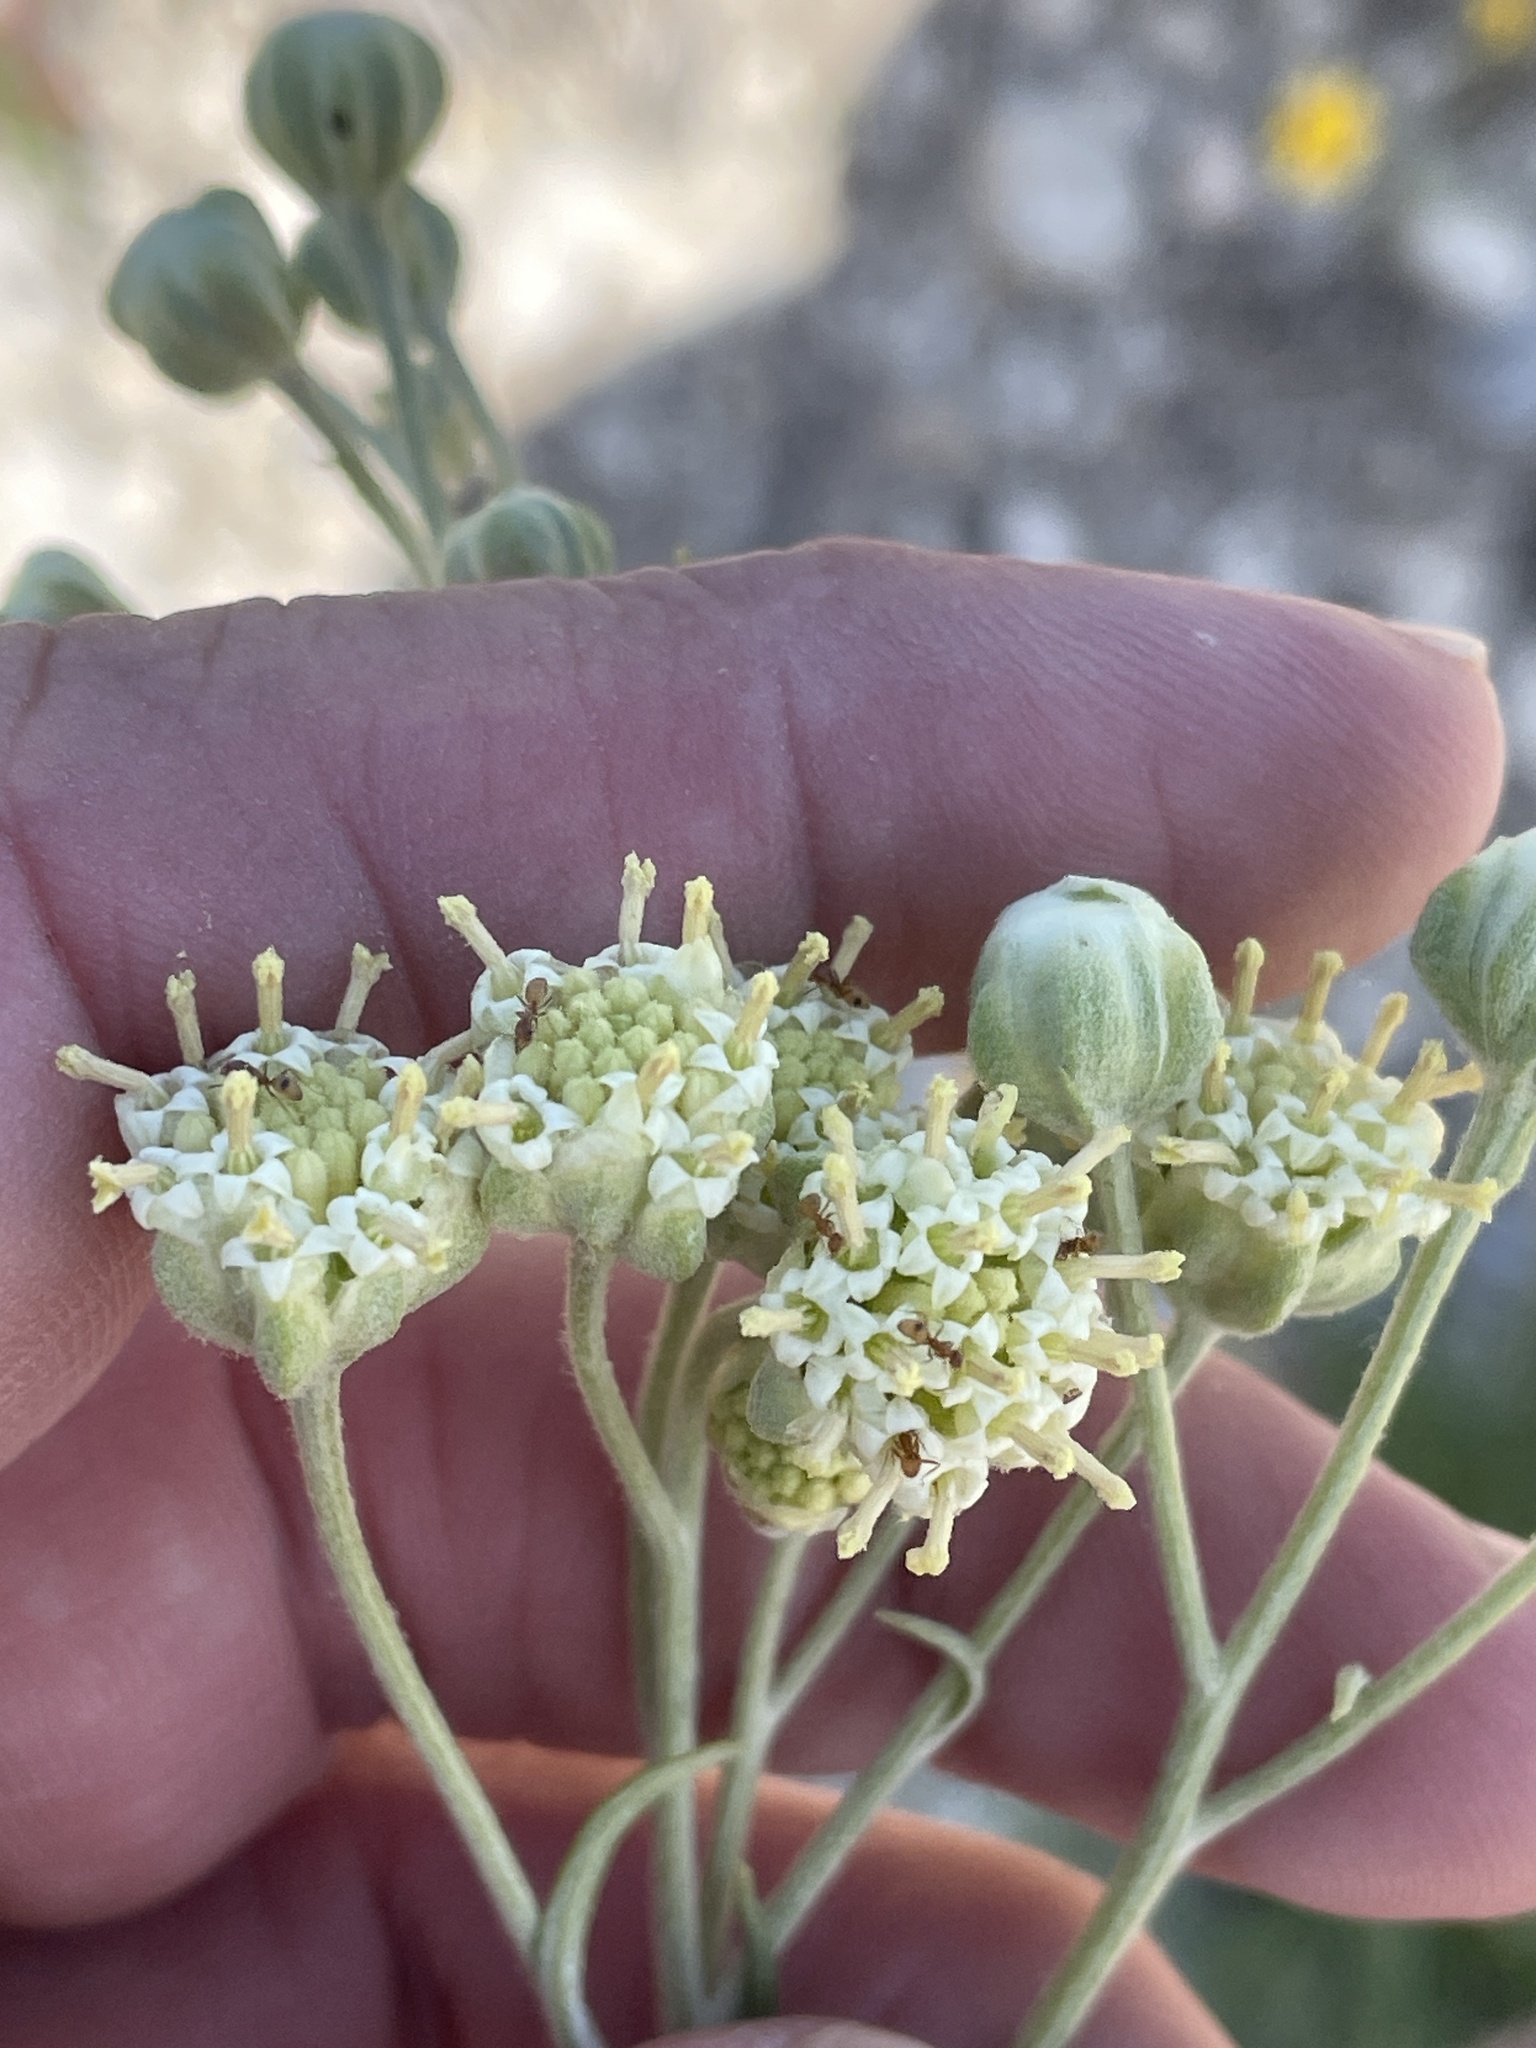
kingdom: Plantae
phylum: Tracheophyta
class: Magnoliopsida
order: Asterales
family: Asteraceae
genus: Hymenopappus
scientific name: Hymenopappus scabiosaeus
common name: Carolina woollywhite
